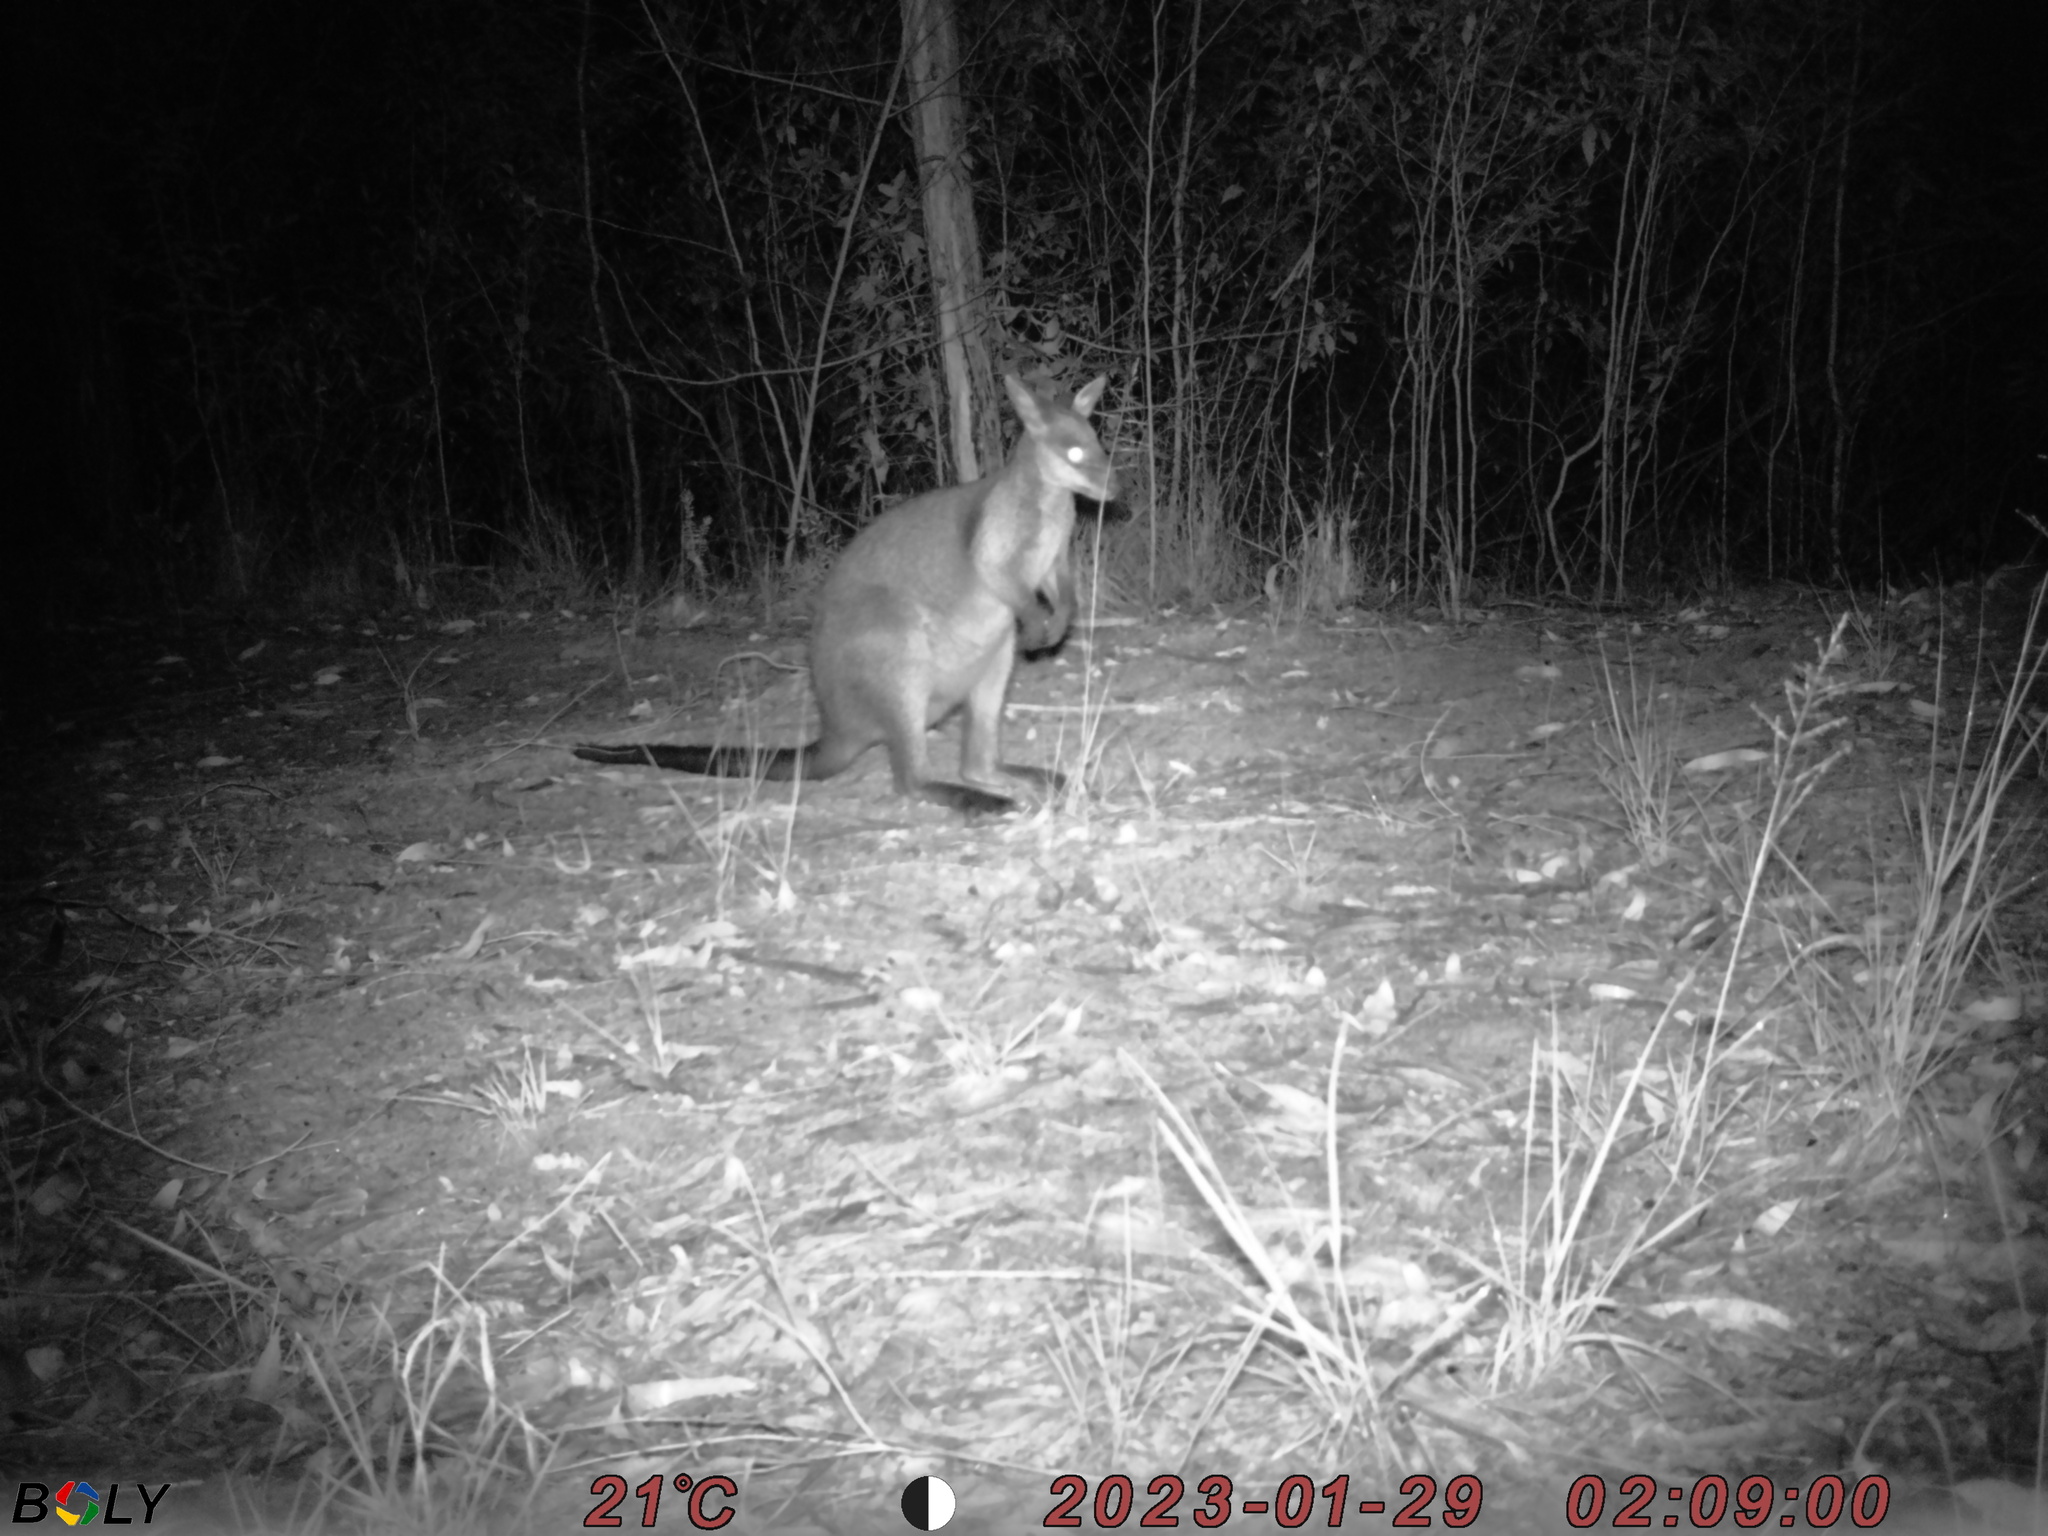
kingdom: Animalia
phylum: Chordata
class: Mammalia
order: Diprotodontia
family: Macropodidae
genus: Wallabia
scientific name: Wallabia bicolor
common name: Swamp wallaby
